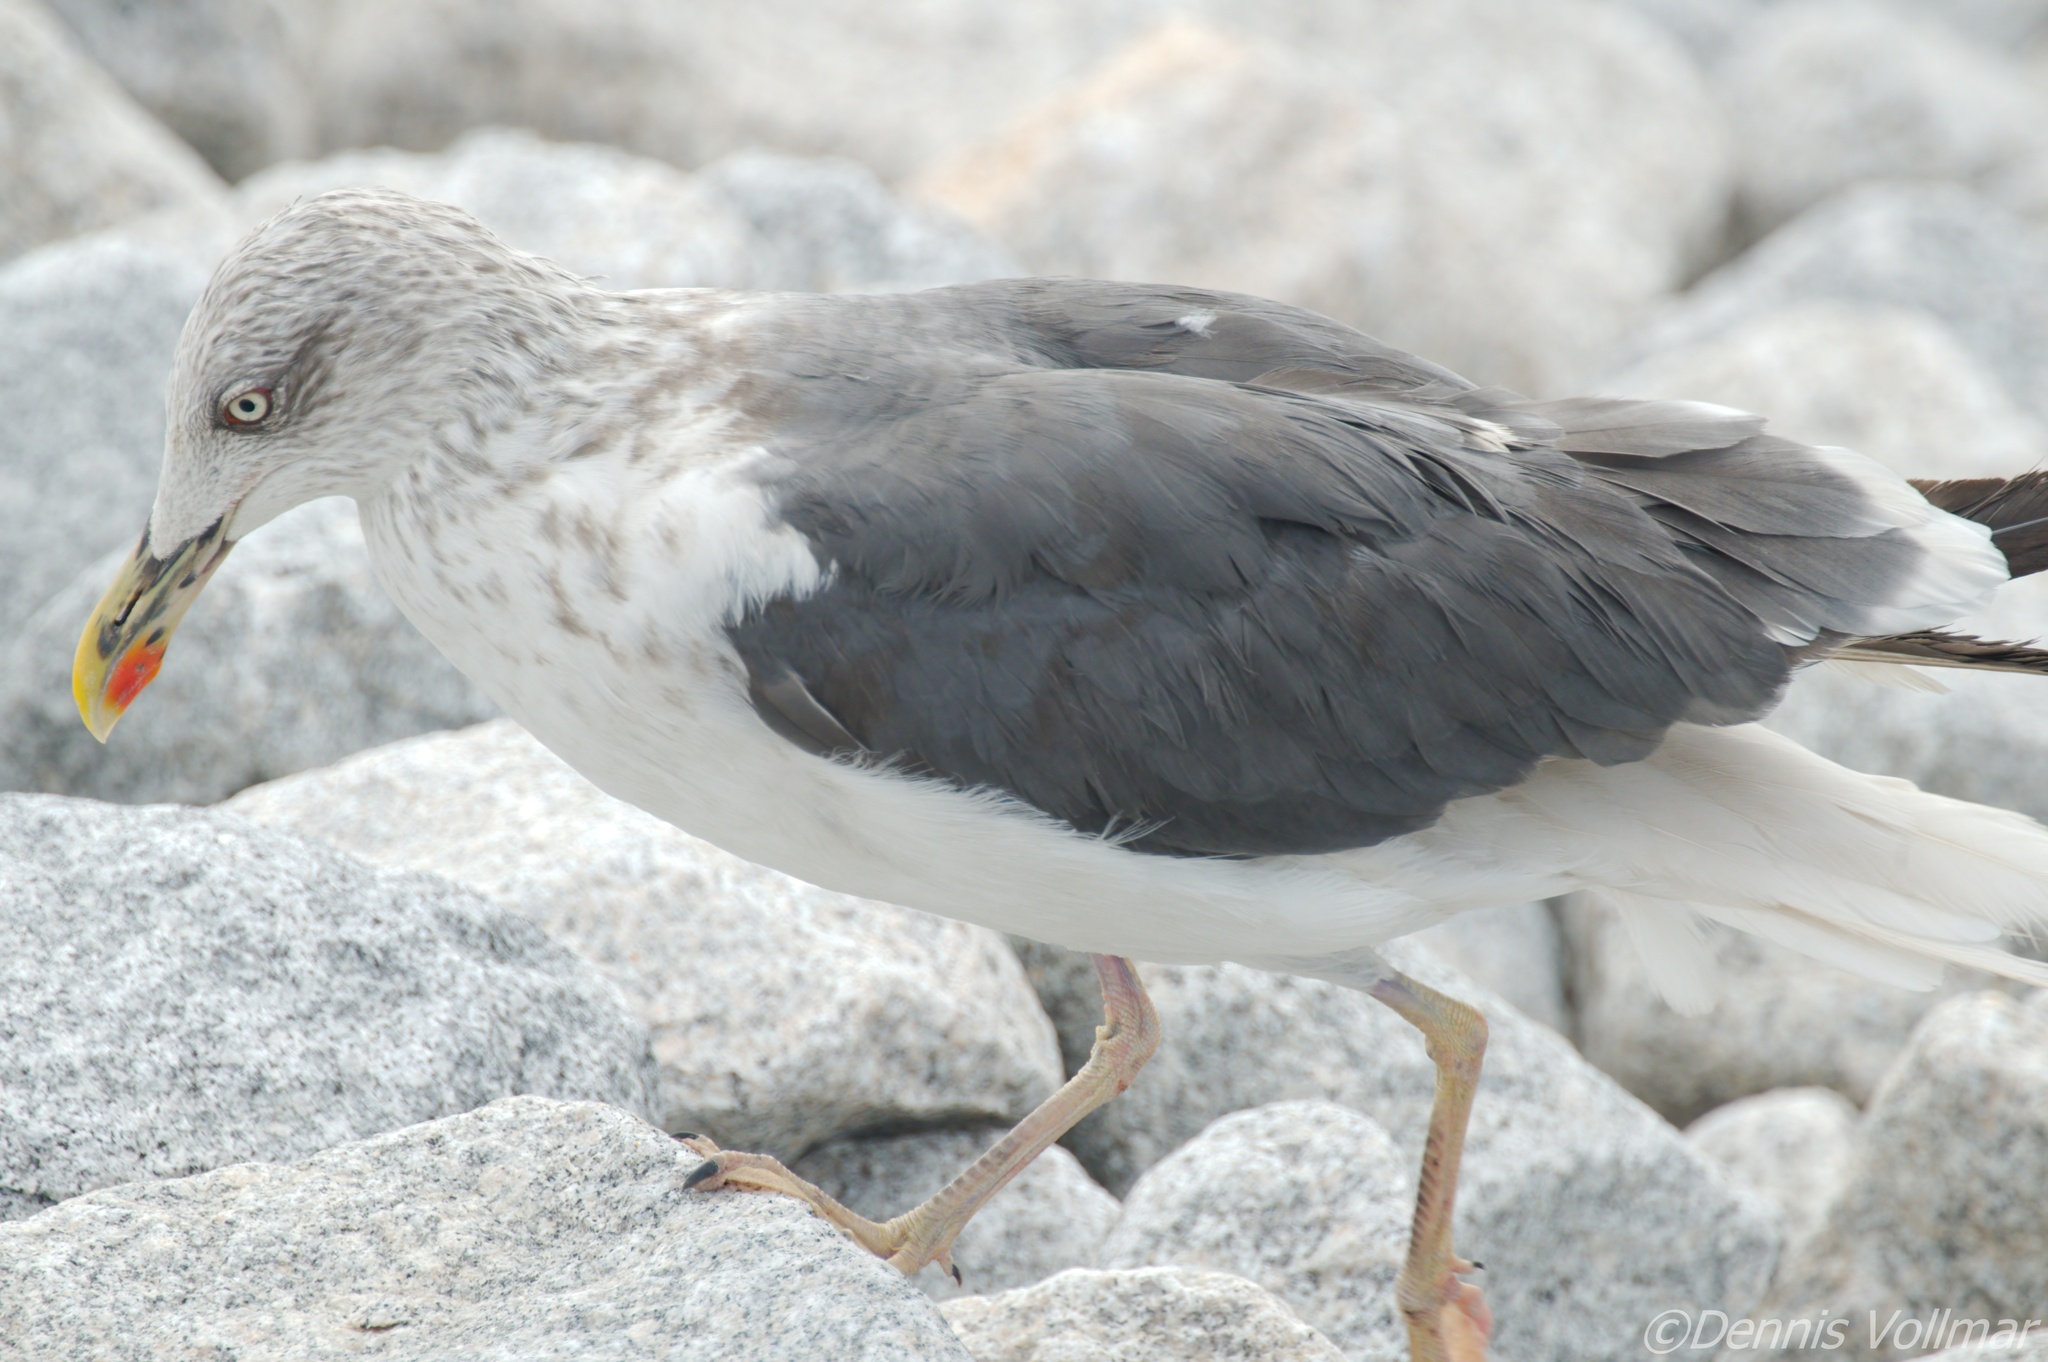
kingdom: Animalia
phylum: Chordata
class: Aves
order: Charadriiformes
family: Laridae
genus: Larus
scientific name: Larus fuscus
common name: Lesser black-backed gull
